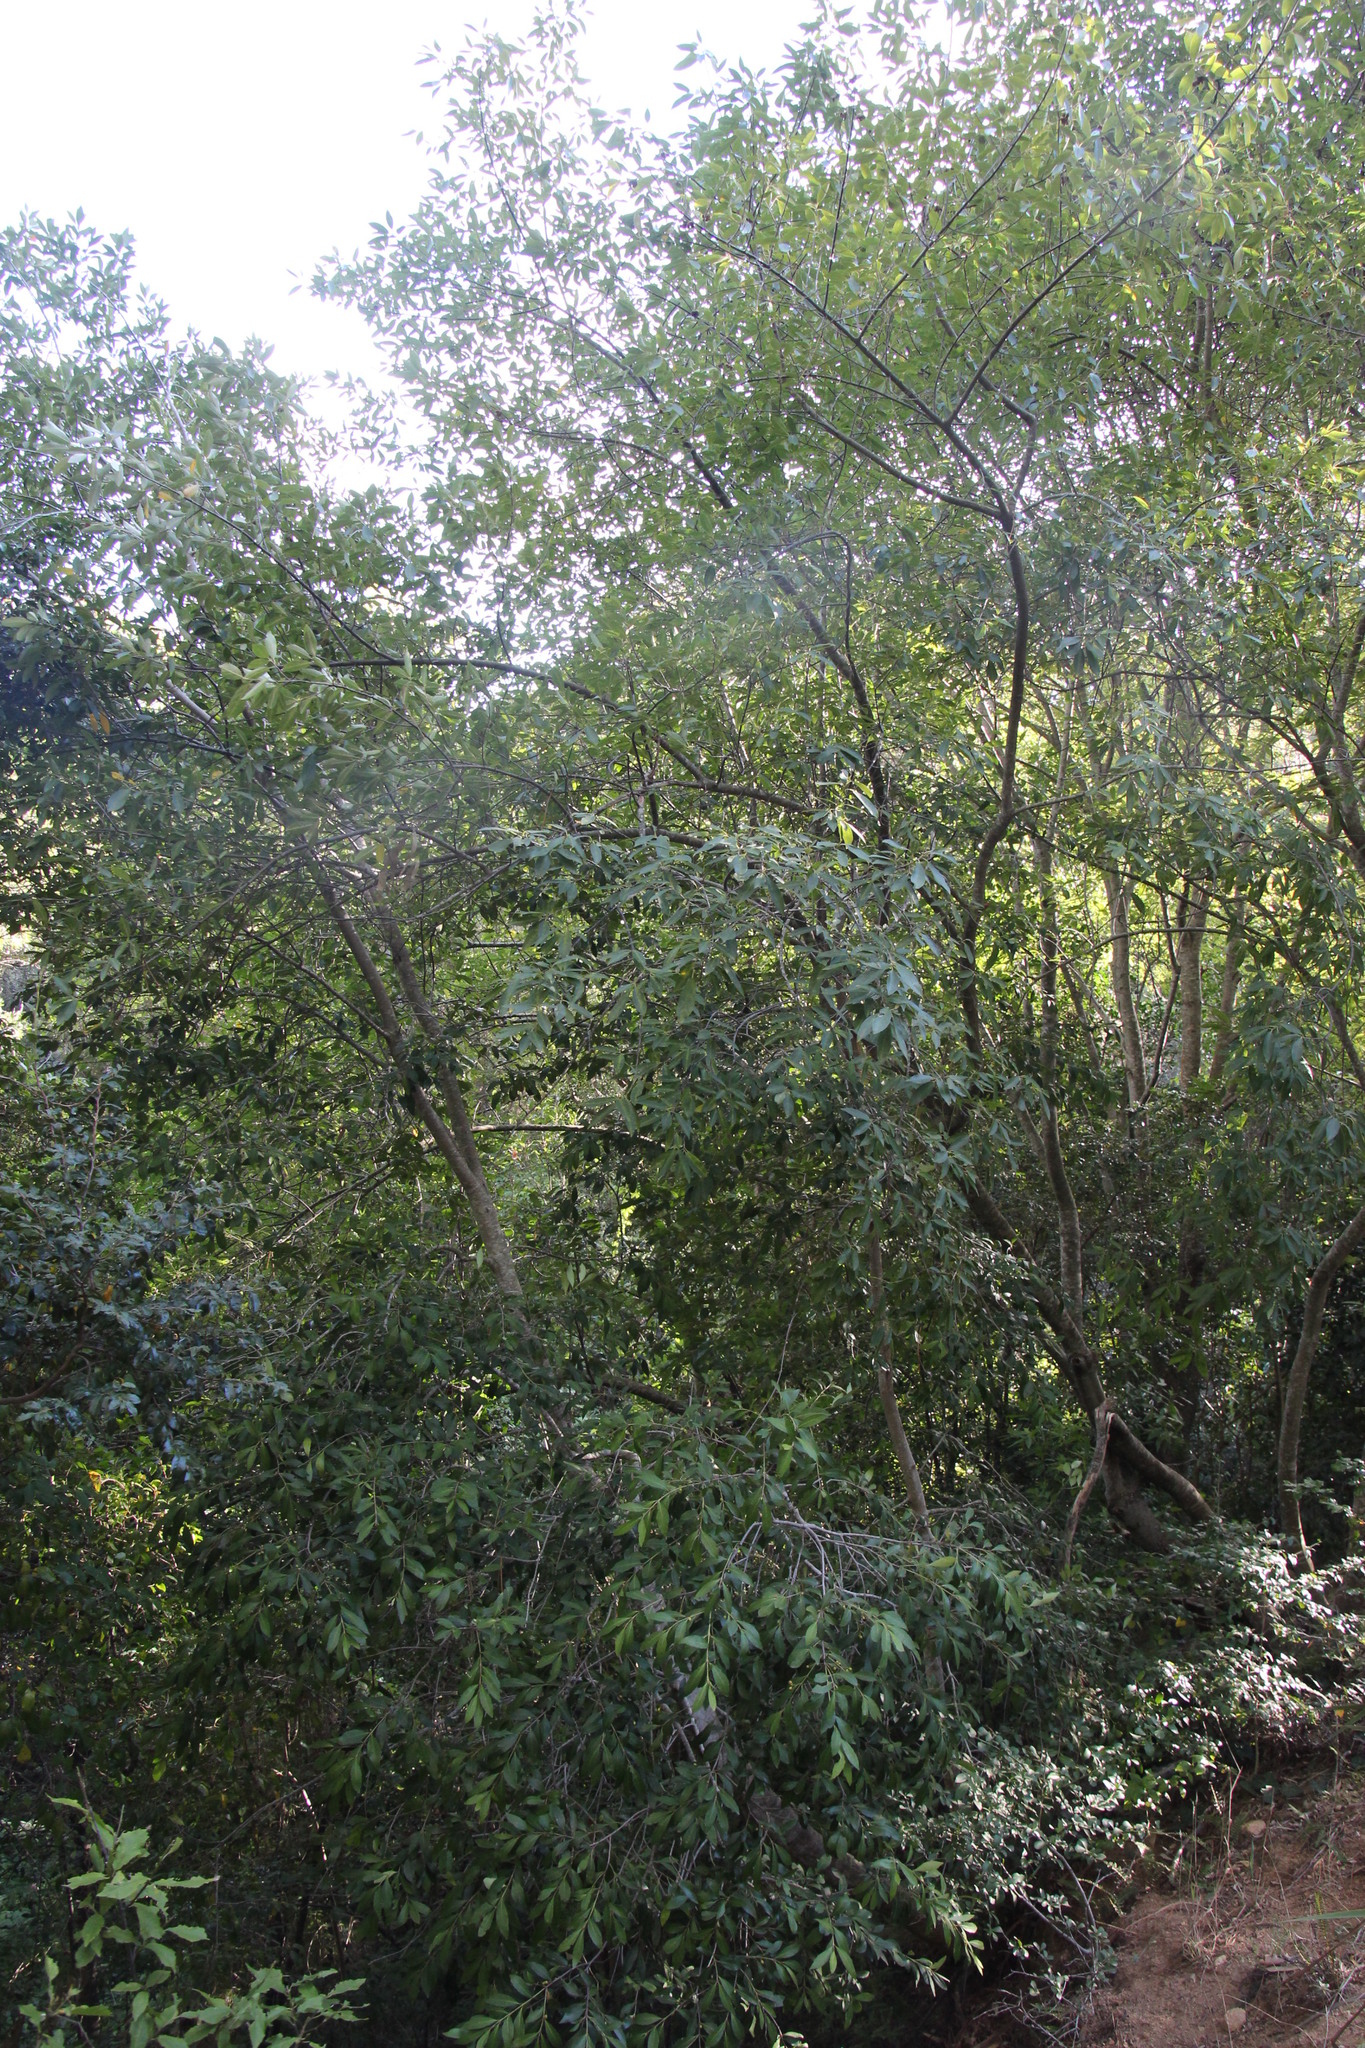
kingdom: Plantae
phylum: Tracheophyta
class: Magnoliopsida
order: Celastrales
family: Celastraceae
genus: Elaeodendron
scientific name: Elaeodendron schinoides
